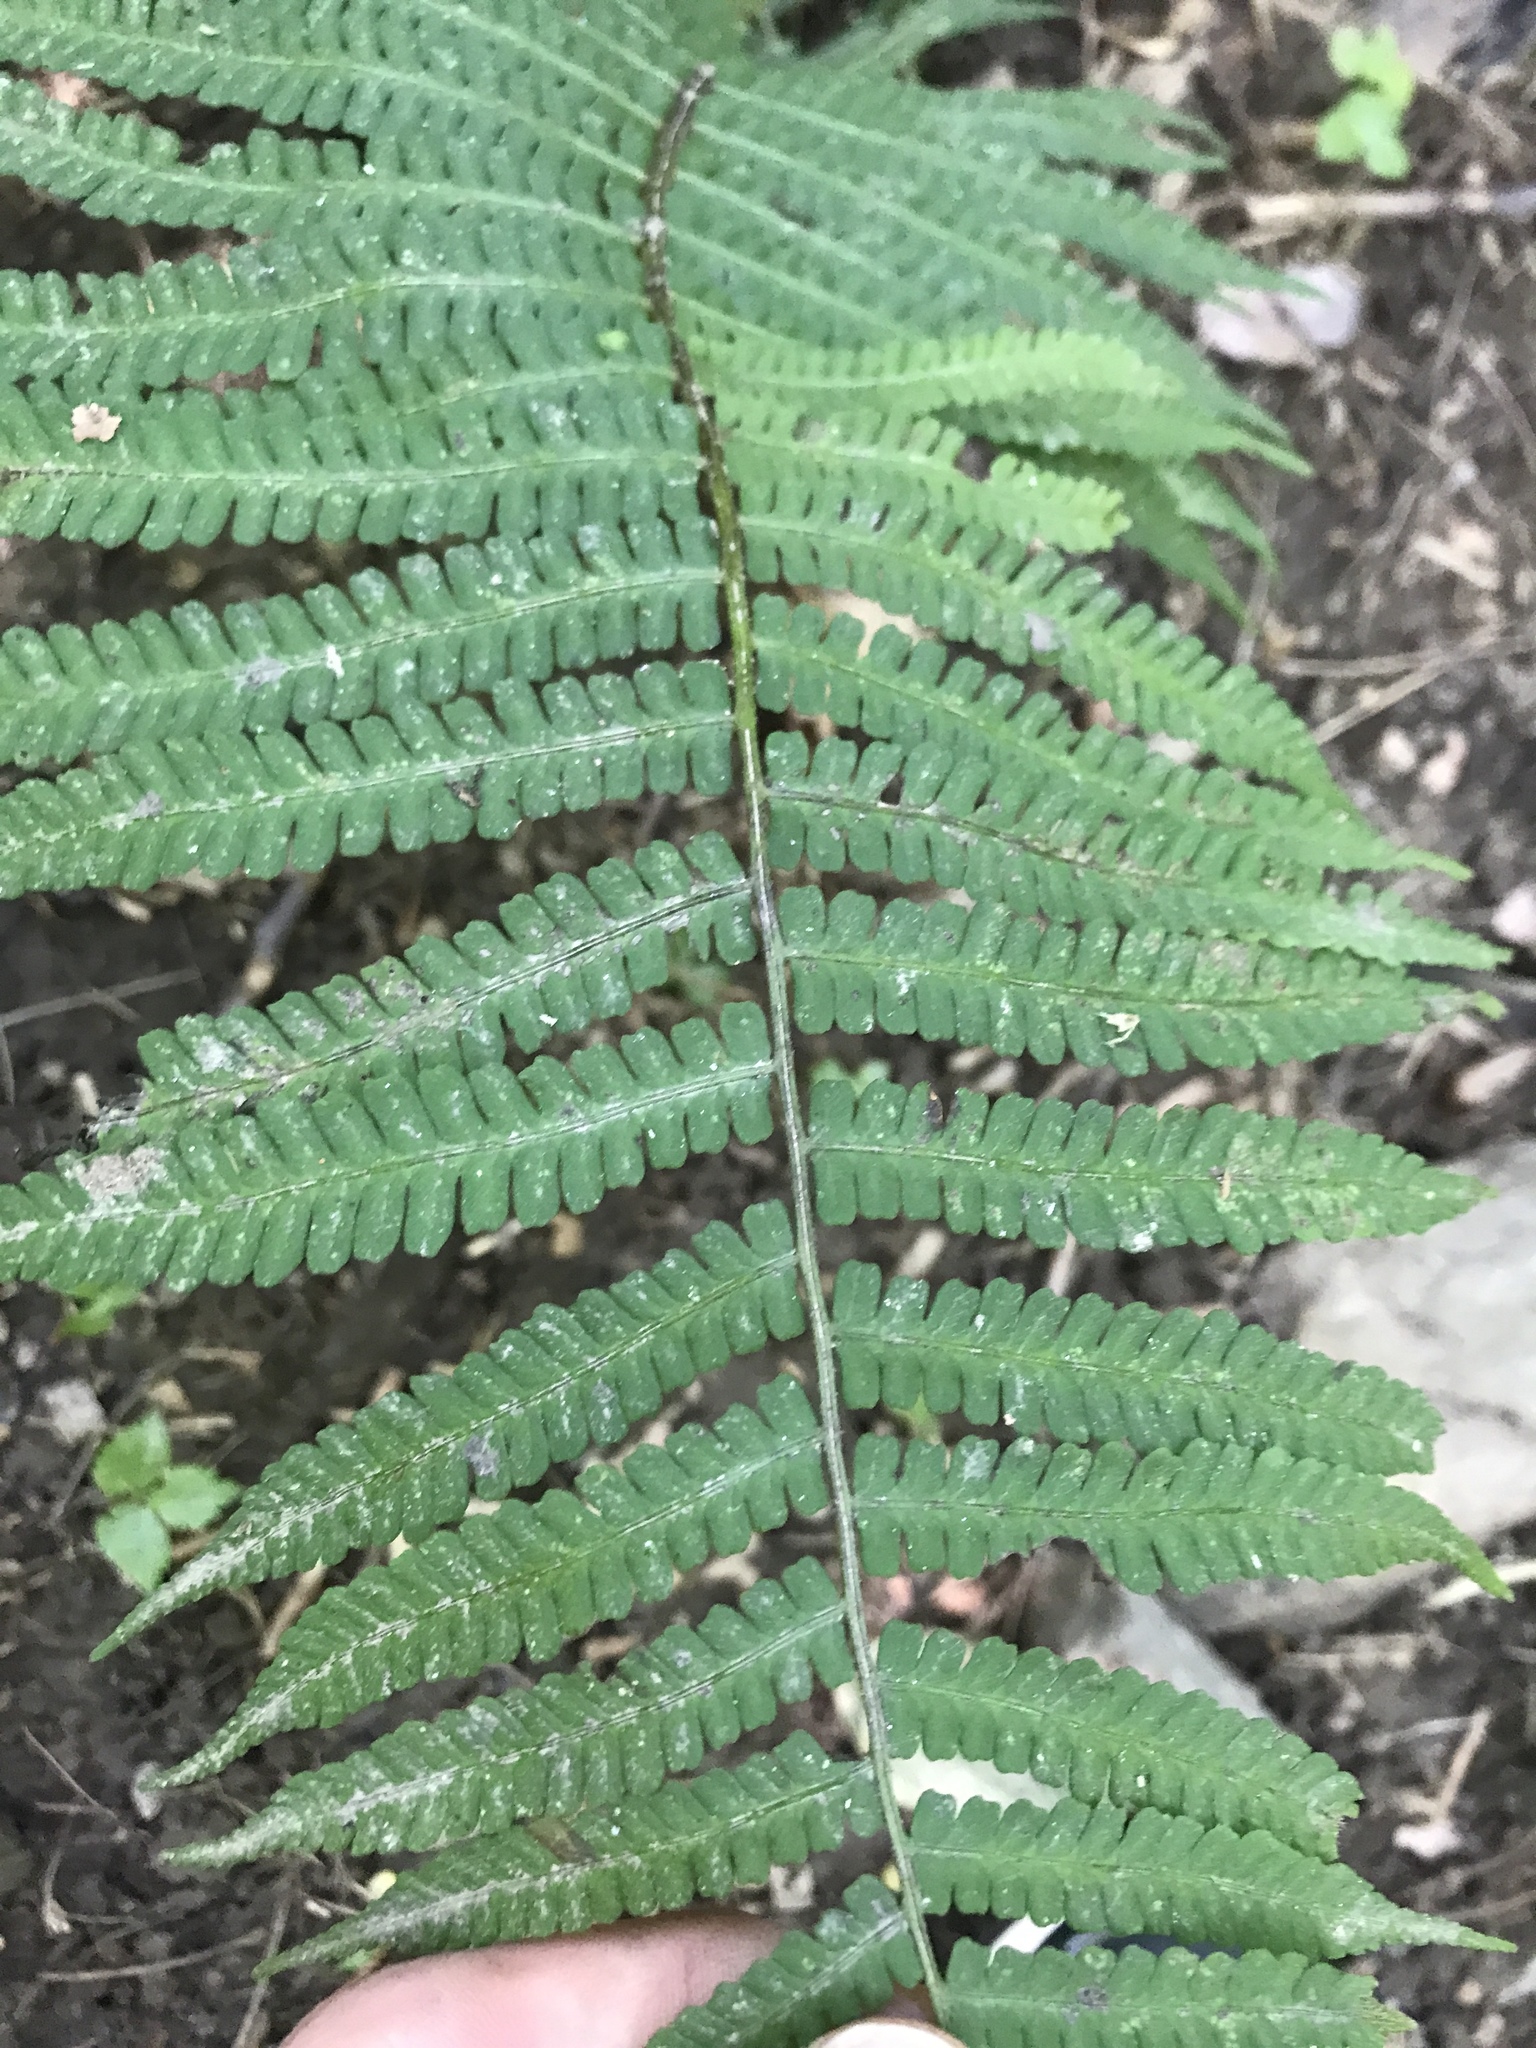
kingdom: Plantae
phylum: Tracheophyta
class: Polypodiopsida
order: Polypodiales
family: Athyriaceae
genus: Deparia
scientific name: Deparia acrostichoides
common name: Silver false spleenwort
